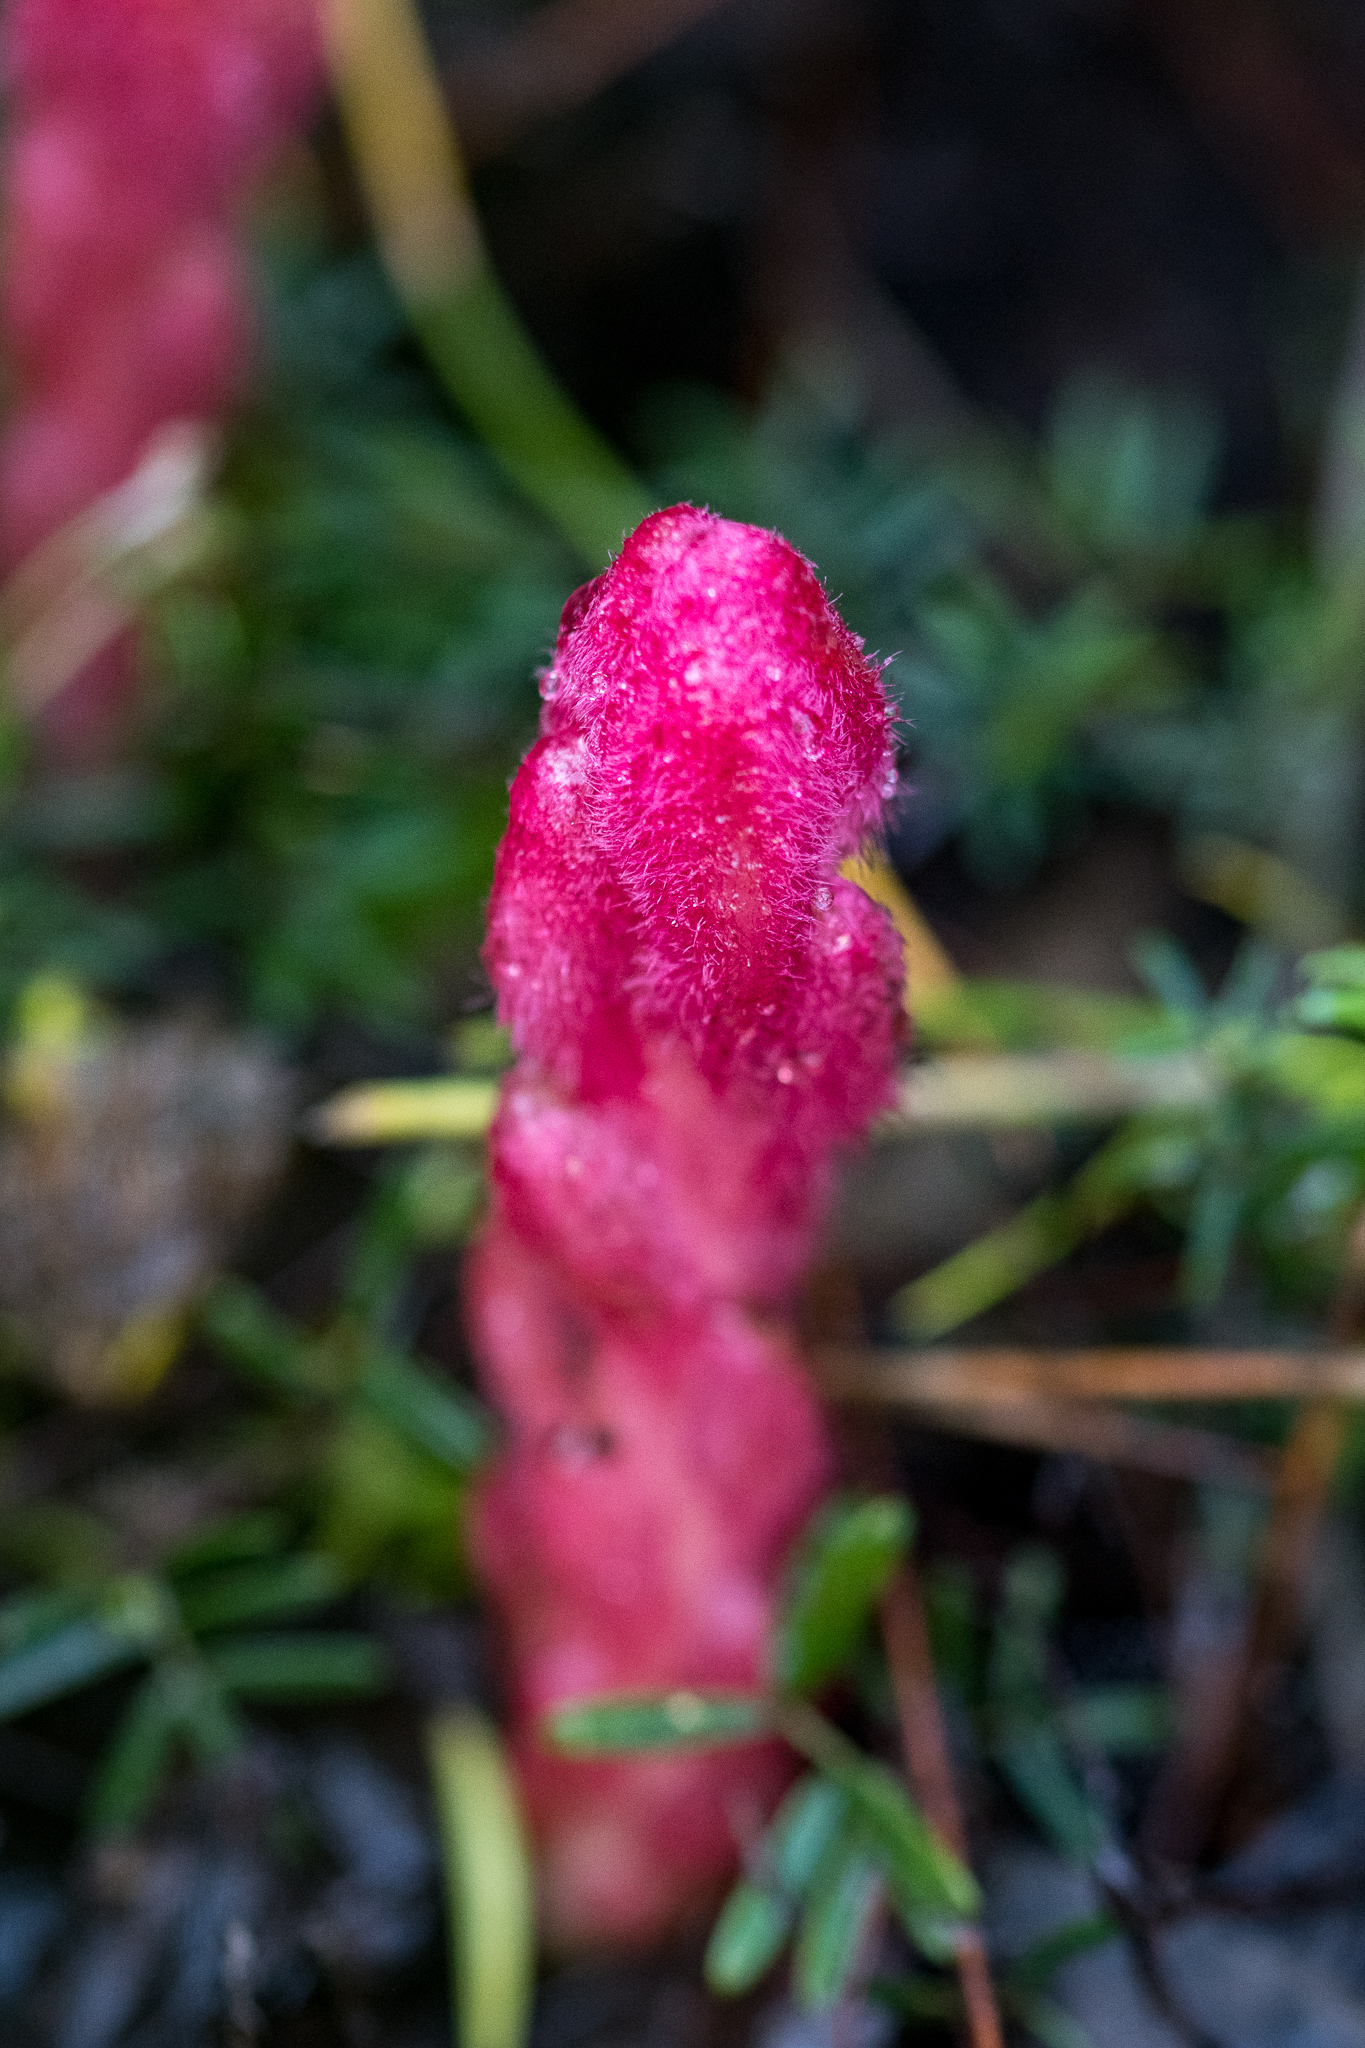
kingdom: Plantae
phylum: Tracheophyta
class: Magnoliopsida
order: Lamiales
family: Orobanchaceae
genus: Hyobanche
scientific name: Hyobanche sanguinea
